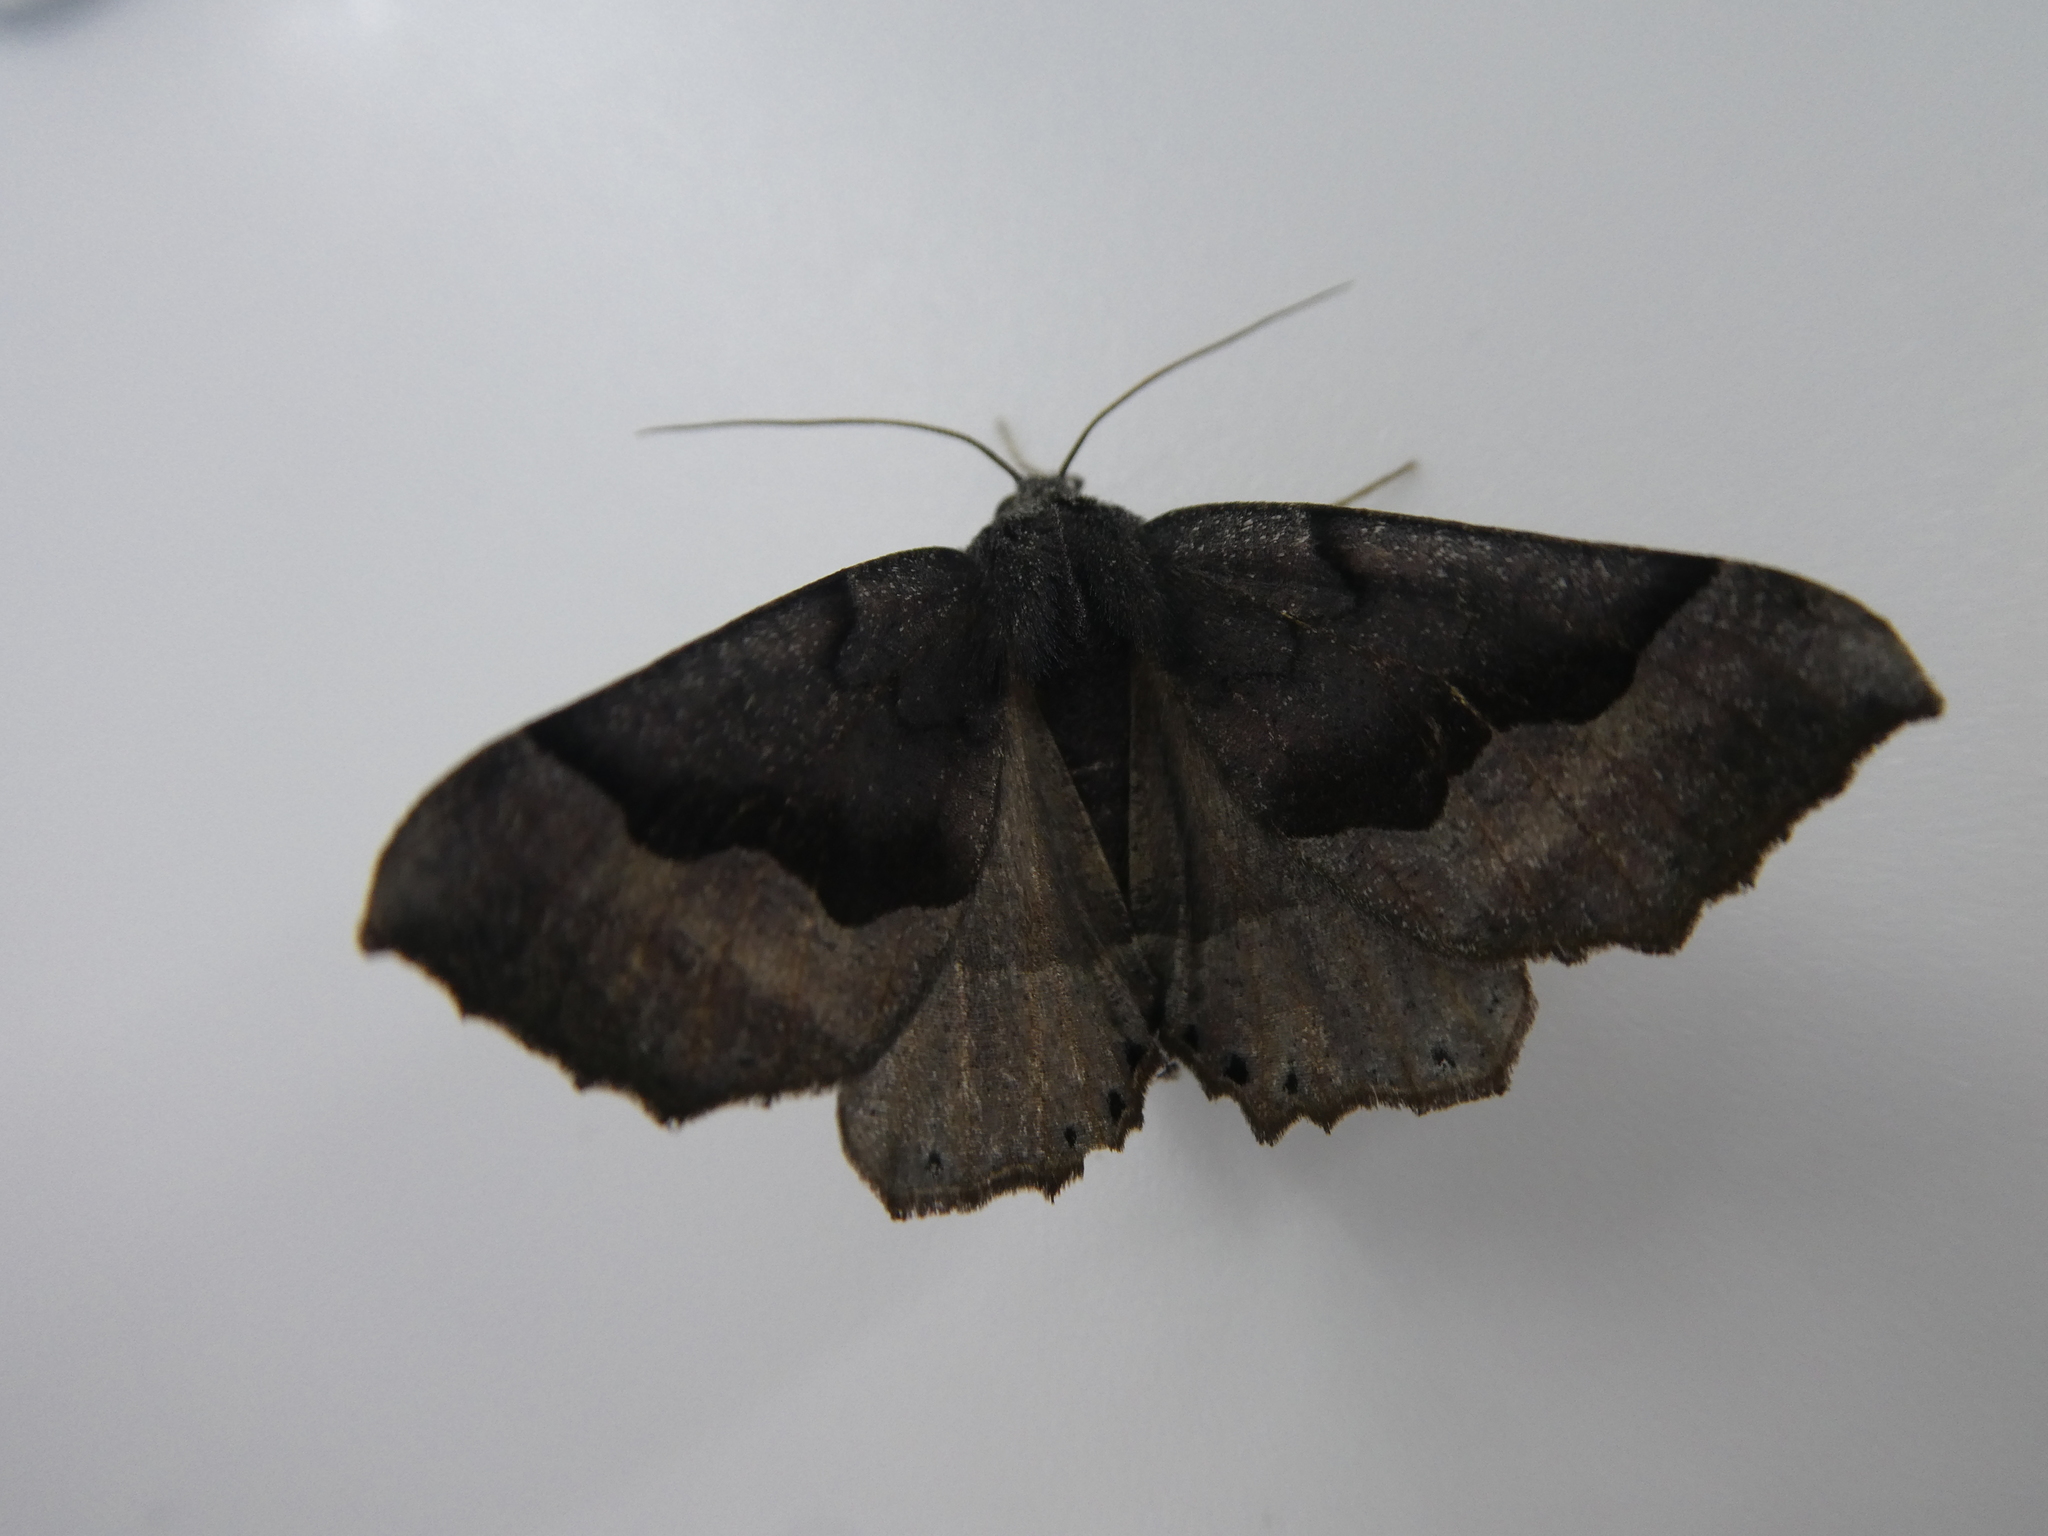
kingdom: Animalia
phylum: Arthropoda
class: Insecta
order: Lepidoptera
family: Geometridae
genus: Pero
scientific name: Pero honestaria
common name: Honest pero
